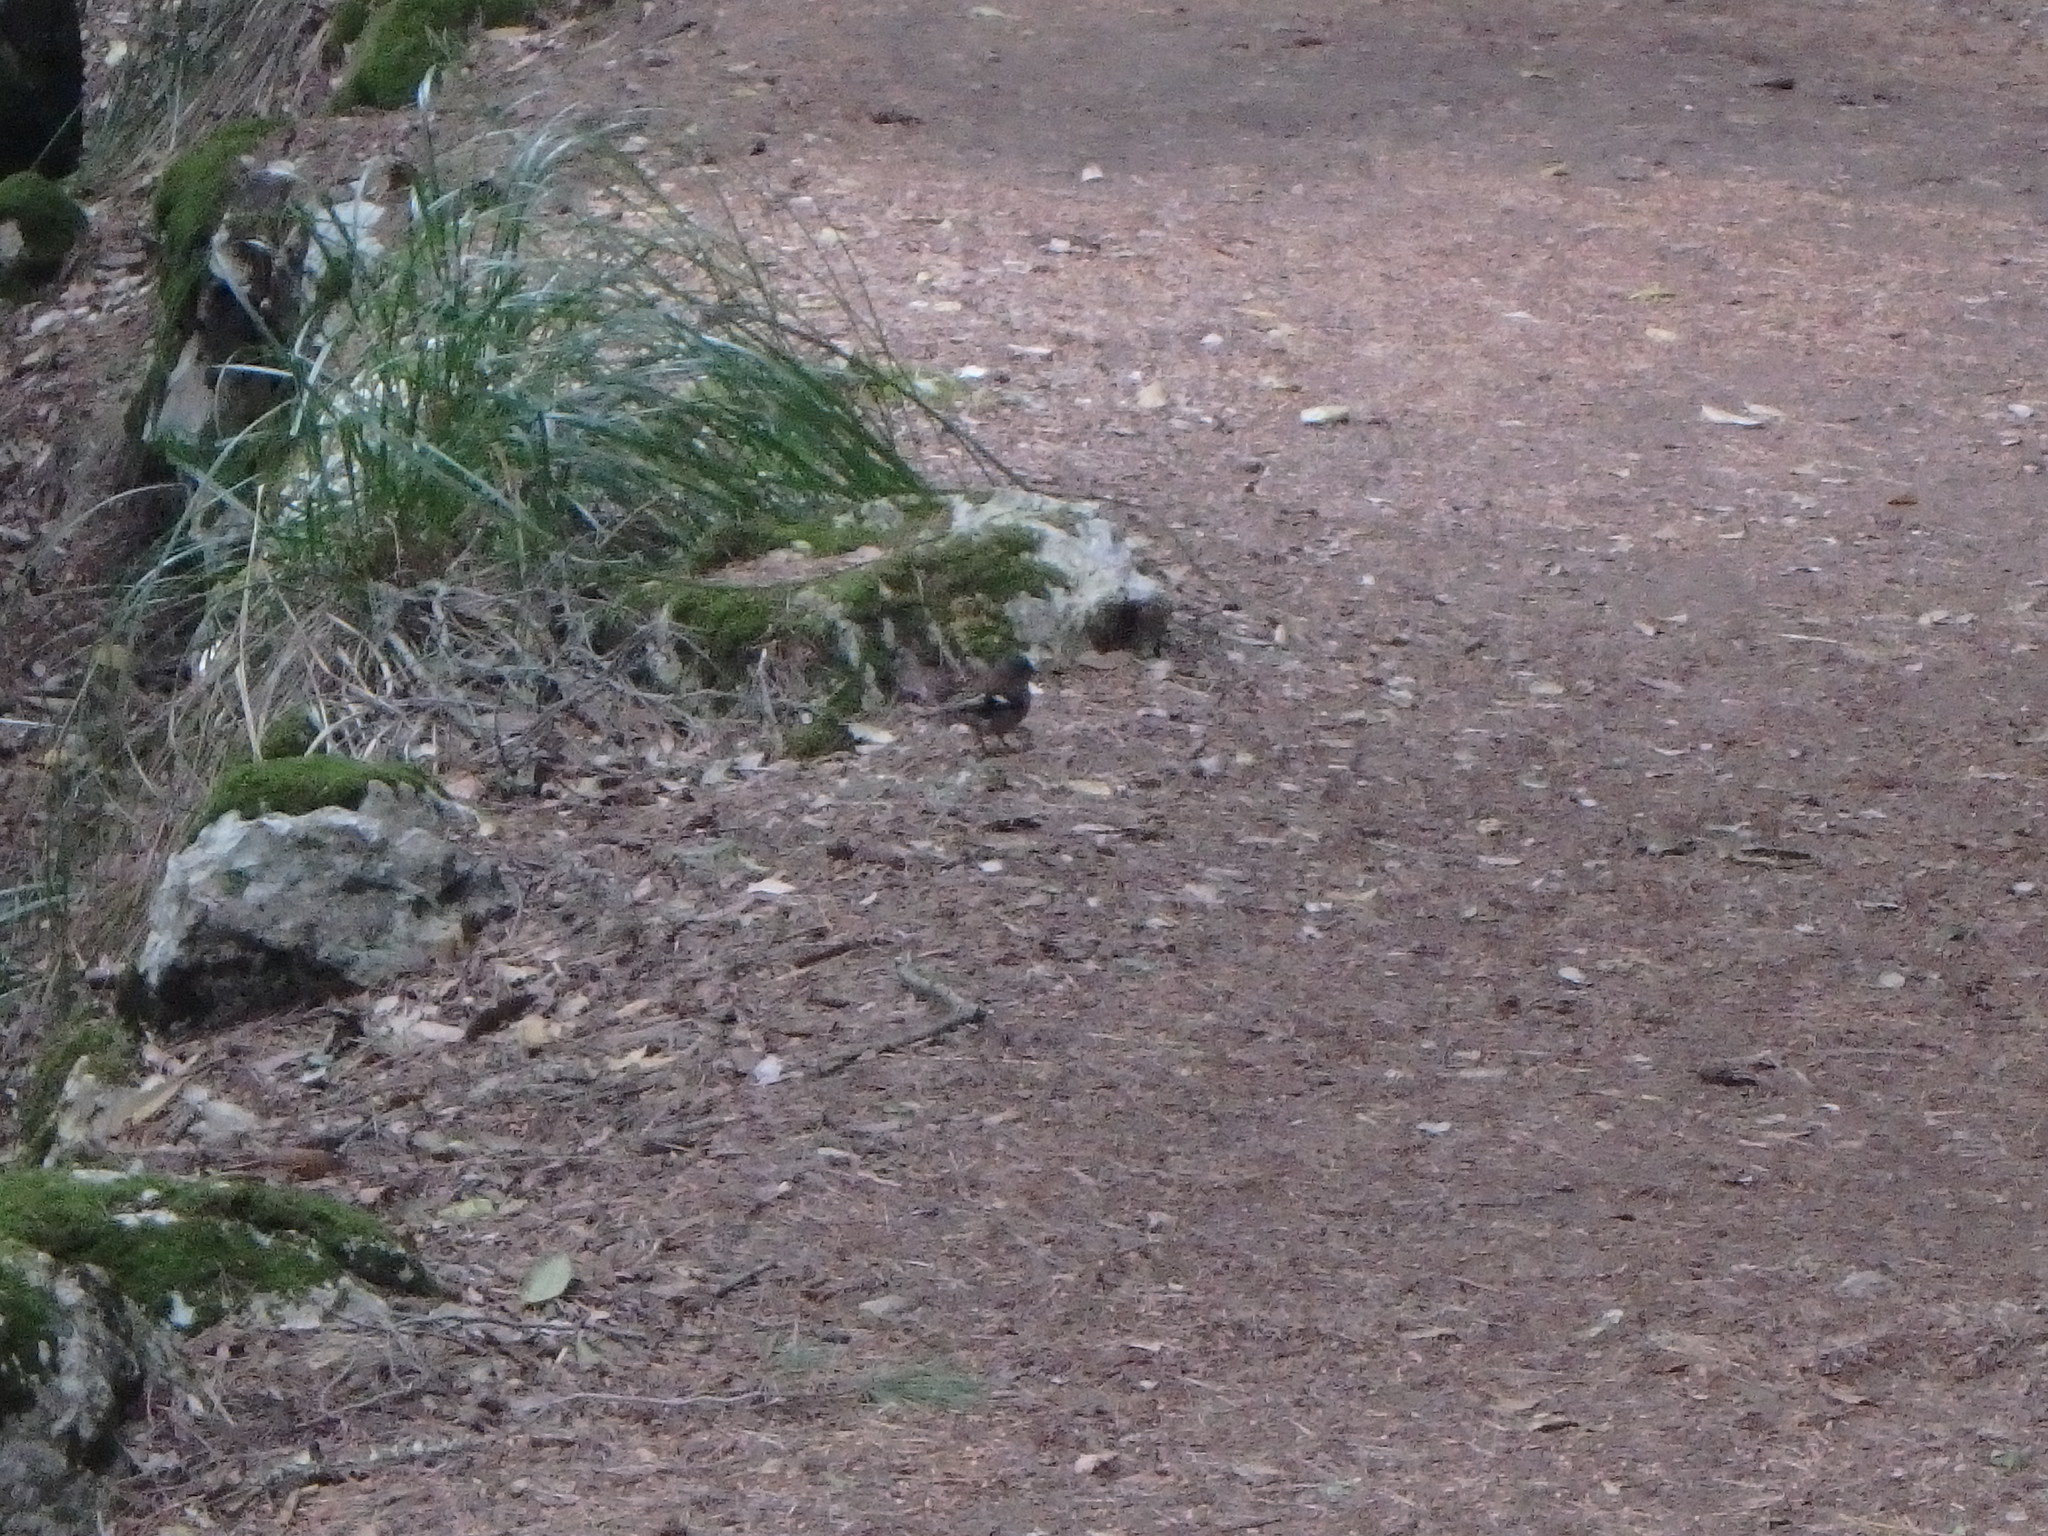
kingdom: Animalia
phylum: Chordata
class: Aves
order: Passeriformes
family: Fringillidae
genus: Fringilla
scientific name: Fringilla coelebs
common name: Common chaffinch
